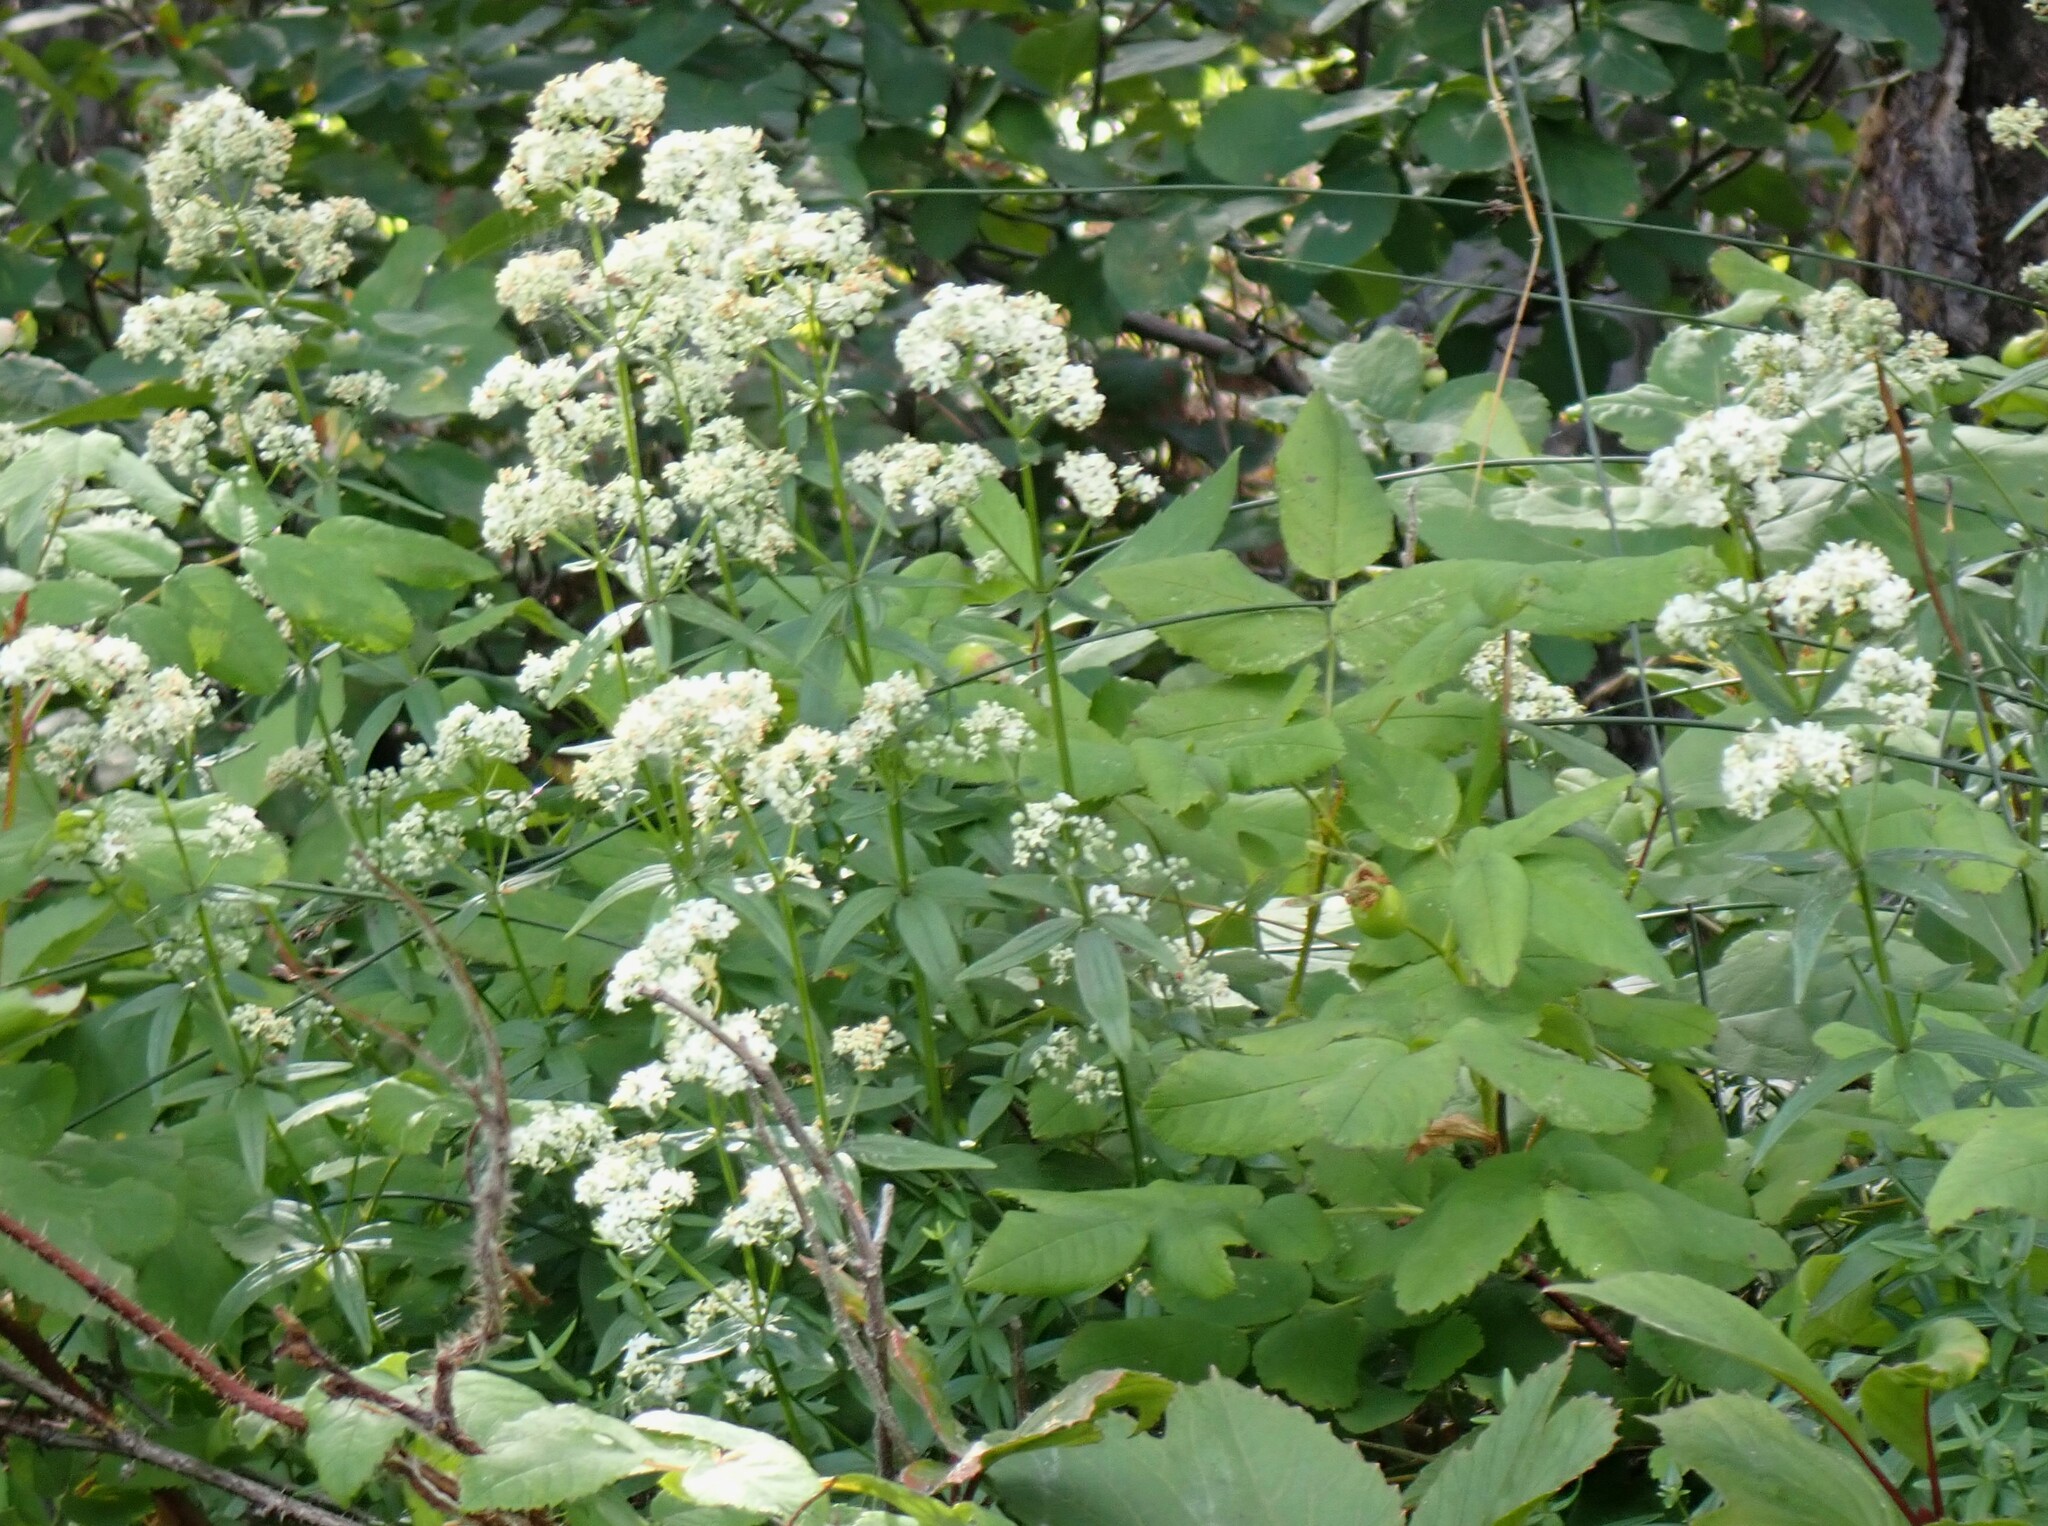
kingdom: Plantae
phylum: Tracheophyta
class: Magnoliopsida
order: Gentianales
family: Rubiaceae
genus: Galium
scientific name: Galium boreale
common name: Northern bedstraw
